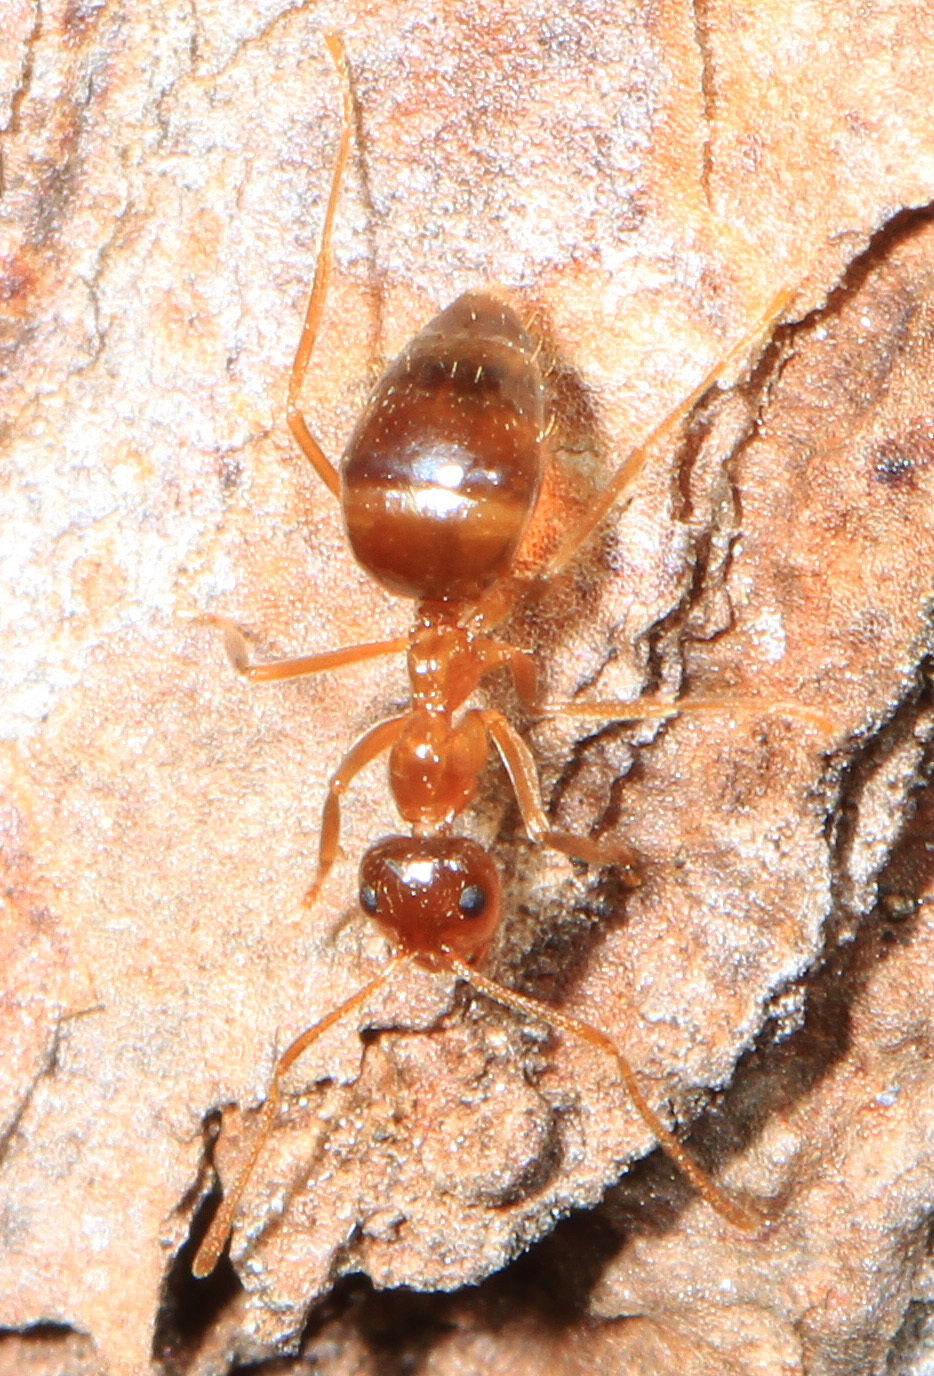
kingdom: Animalia
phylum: Arthropoda
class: Insecta
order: Hymenoptera
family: Formicidae
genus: Prenolepis
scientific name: Prenolepis imparis
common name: Small honey ant
